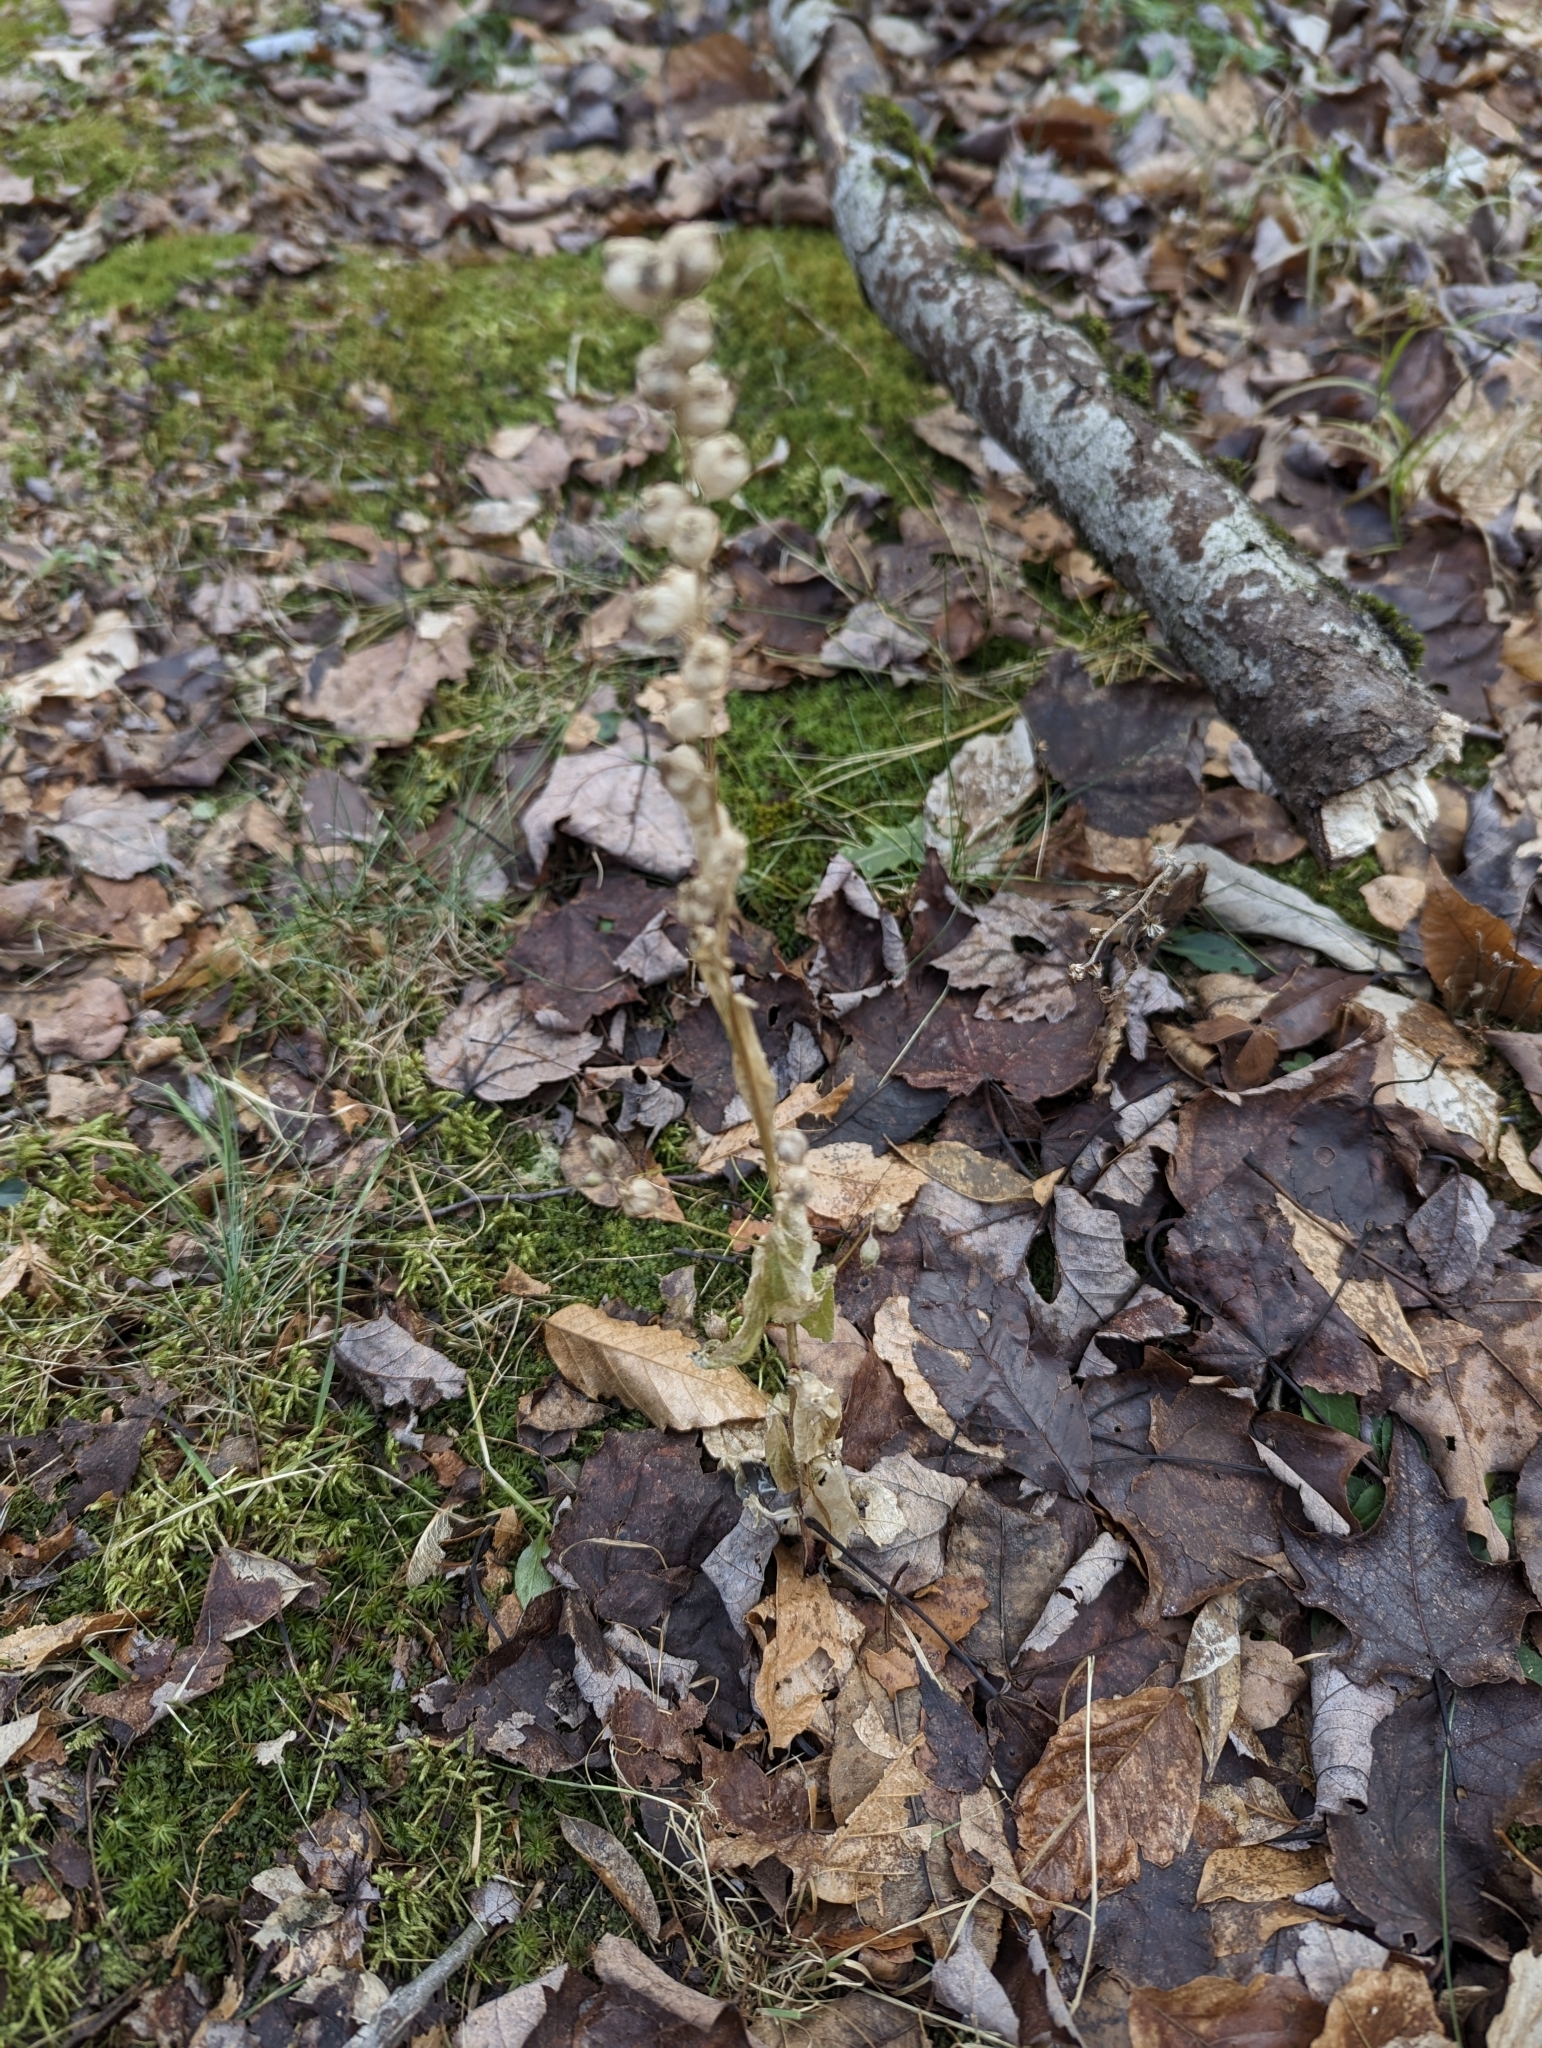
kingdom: Plantae
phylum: Tracheophyta
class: Magnoliopsida
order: Asterales
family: Campanulaceae
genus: Lobelia
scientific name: Lobelia inflata
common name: Indian tobacco
